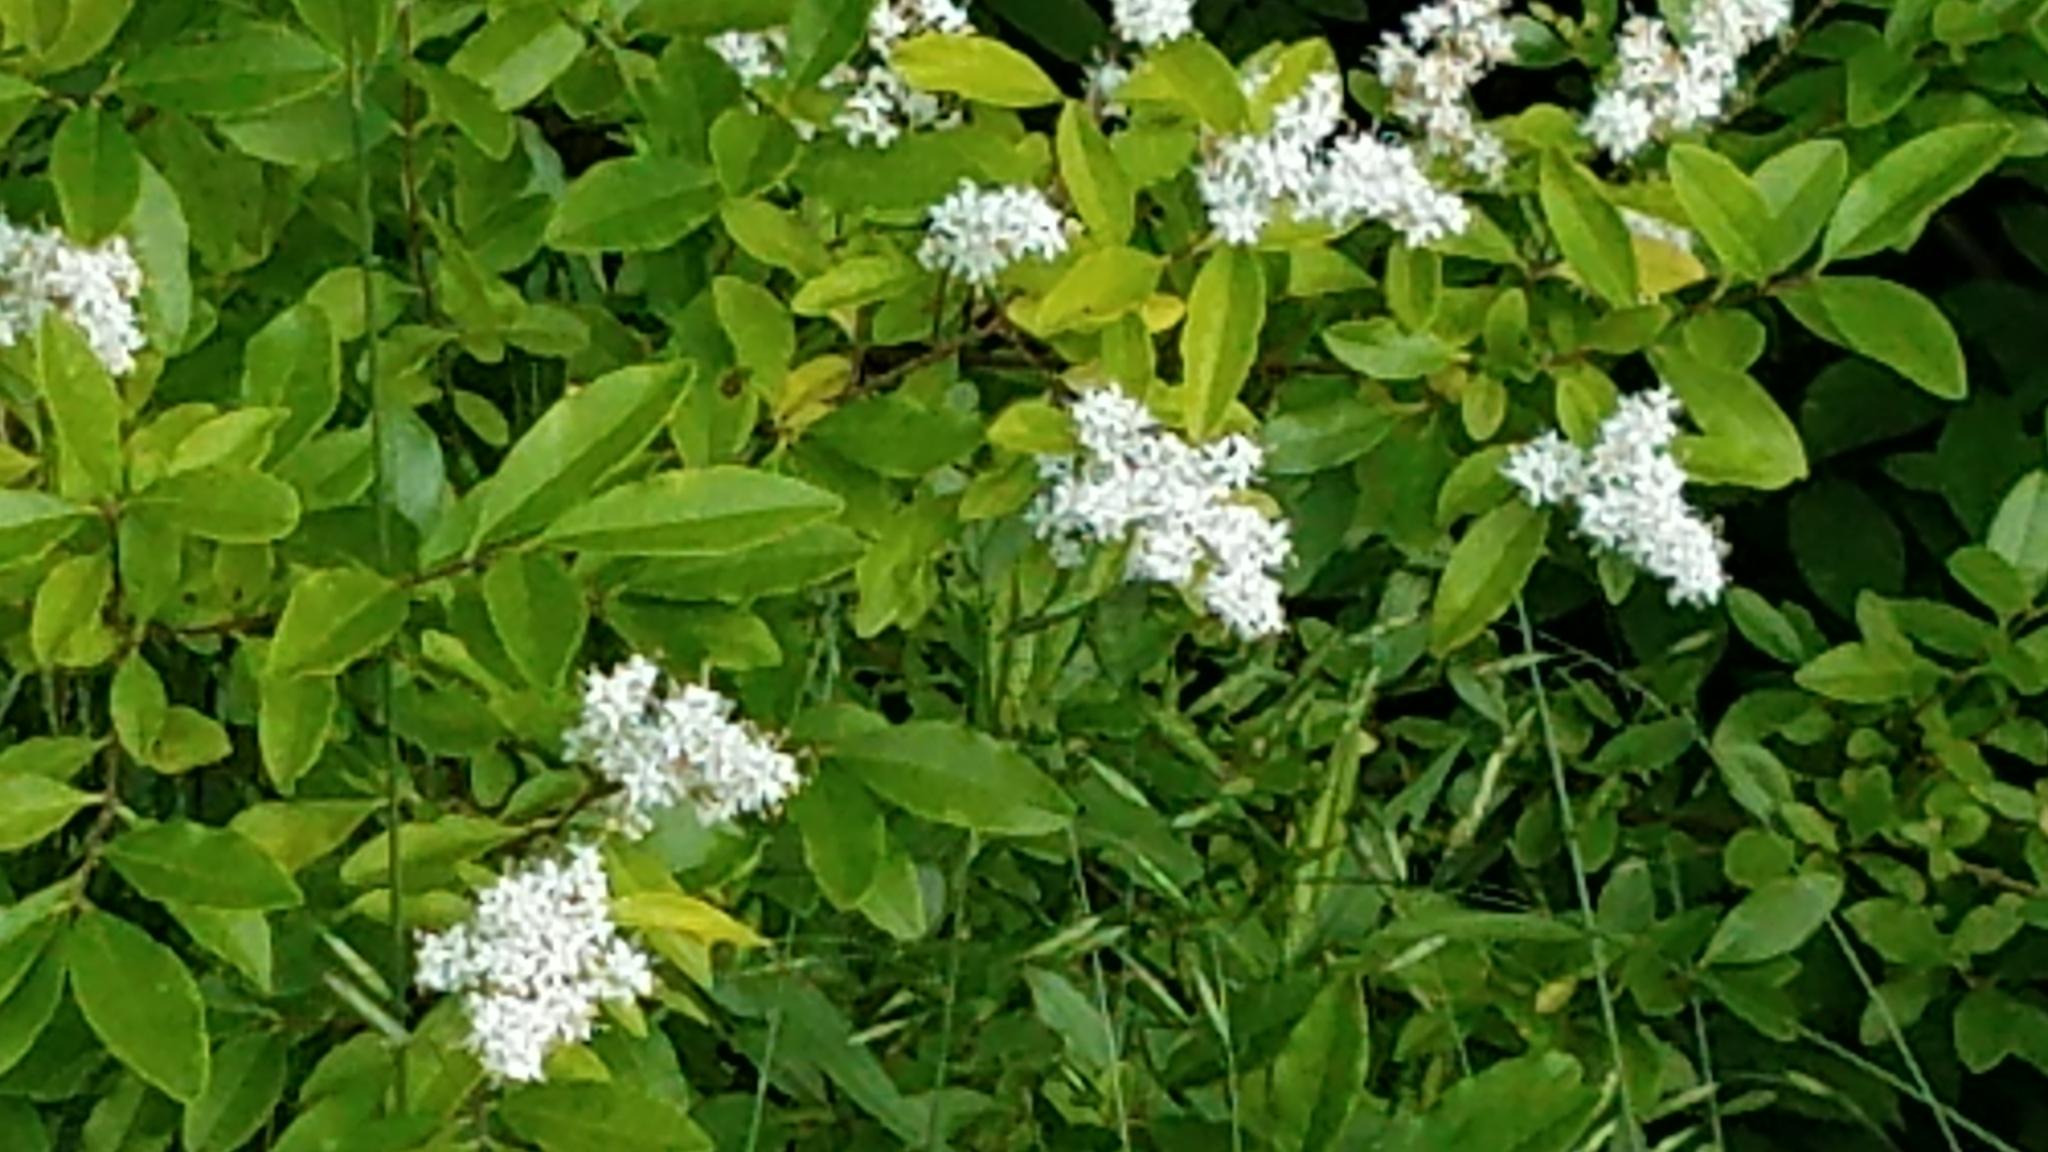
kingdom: Plantae
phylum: Tracheophyta
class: Magnoliopsida
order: Lamiales
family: Oleaceae
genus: Ligustrum
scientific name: Ligustrum sinense
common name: Chinese privet
